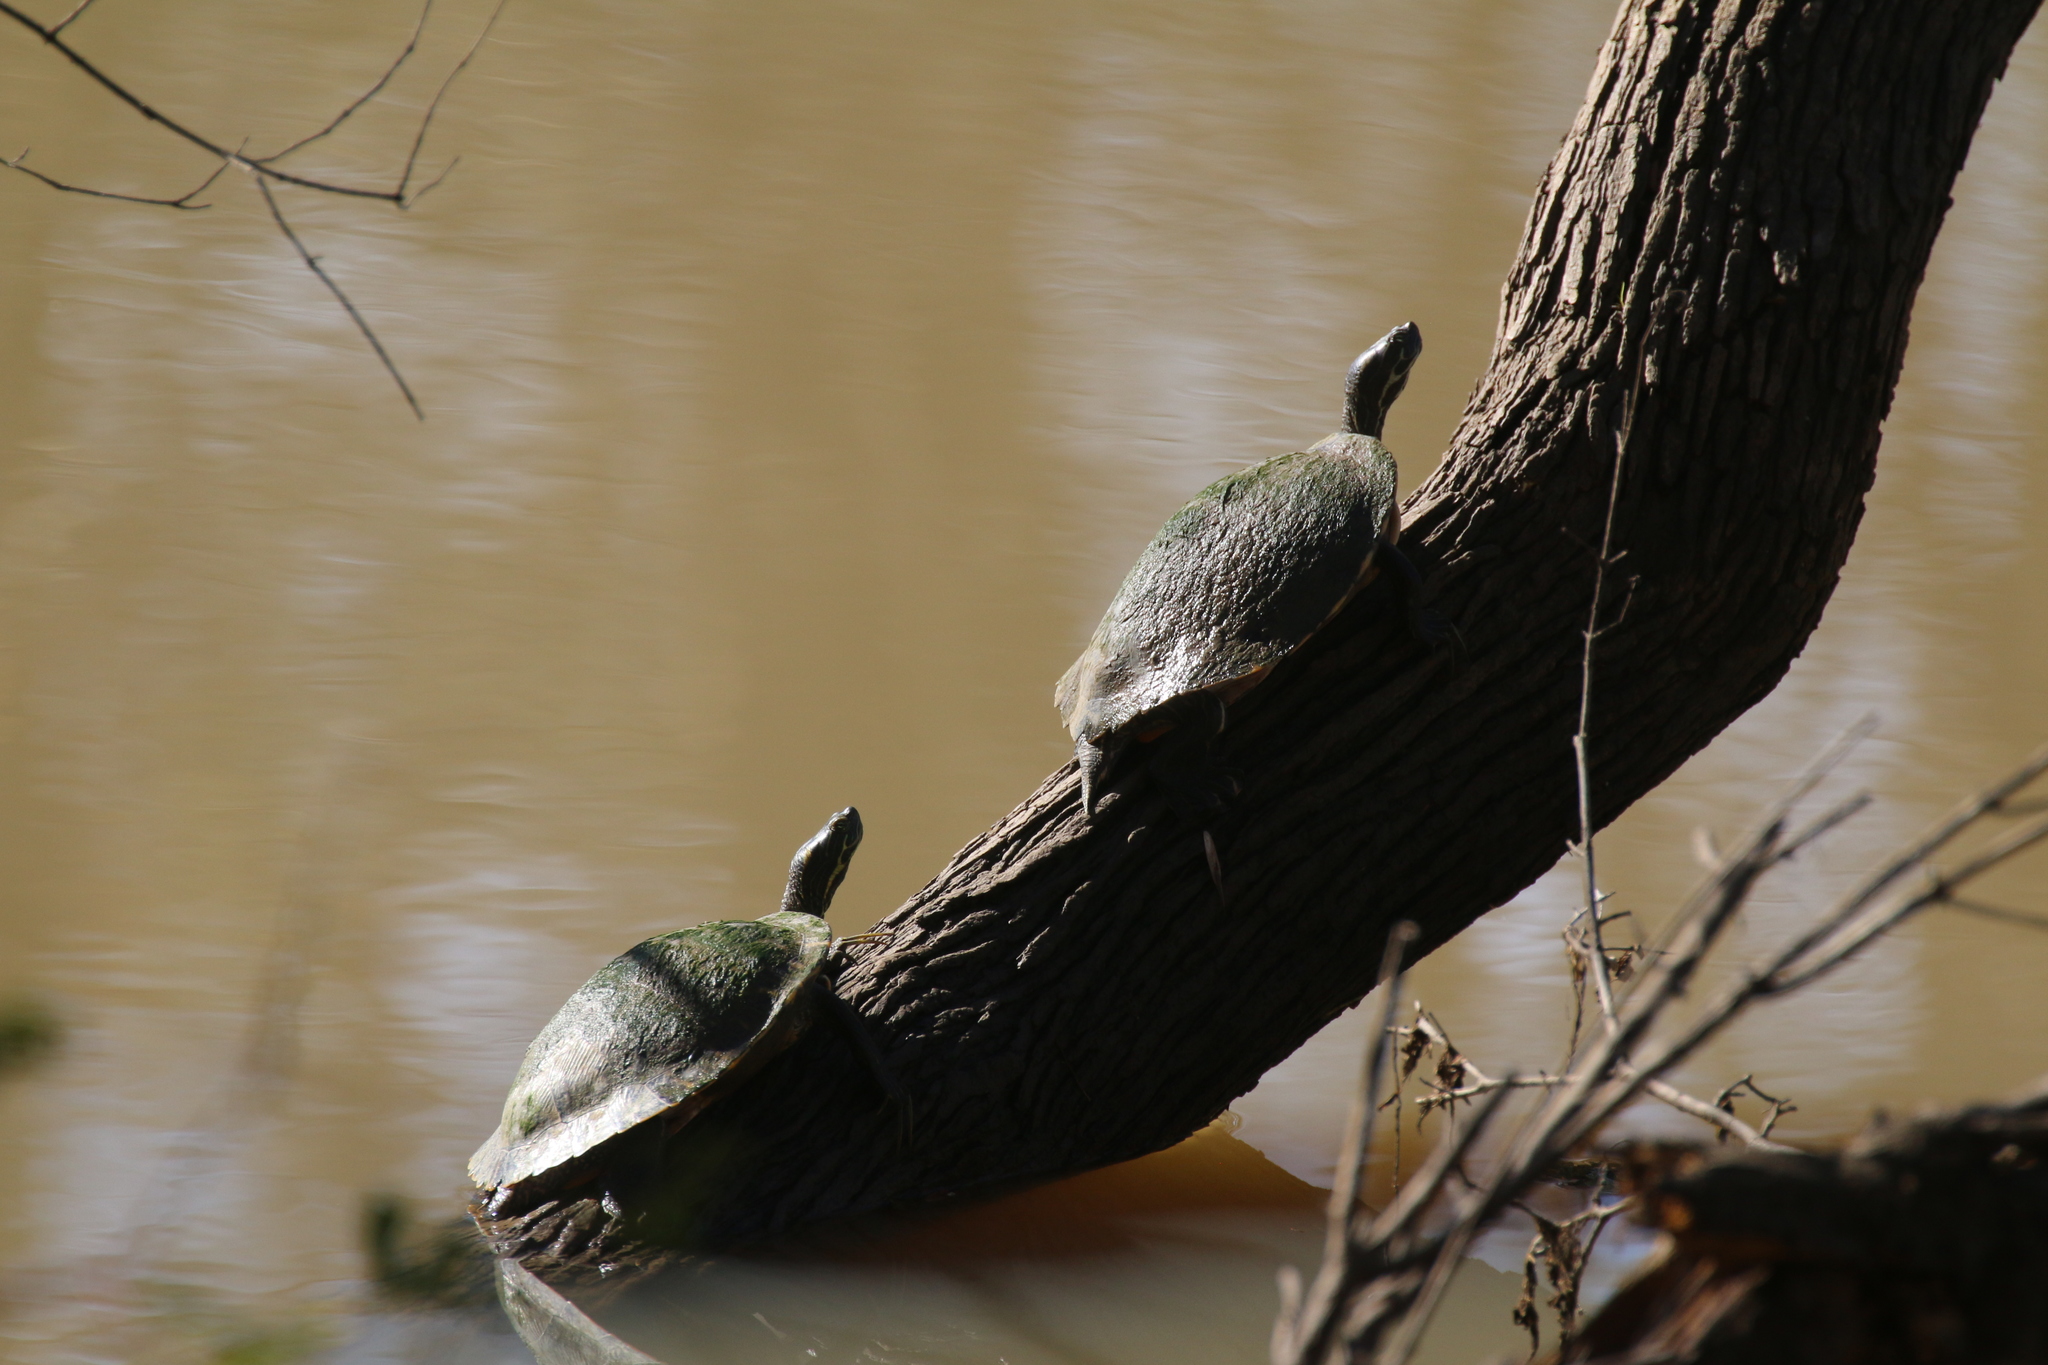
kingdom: Animalia
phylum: Chordata
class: Testudines
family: Emydidae
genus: Pseudemys
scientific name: Pseudemys concinna
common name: Eastern river cooter
